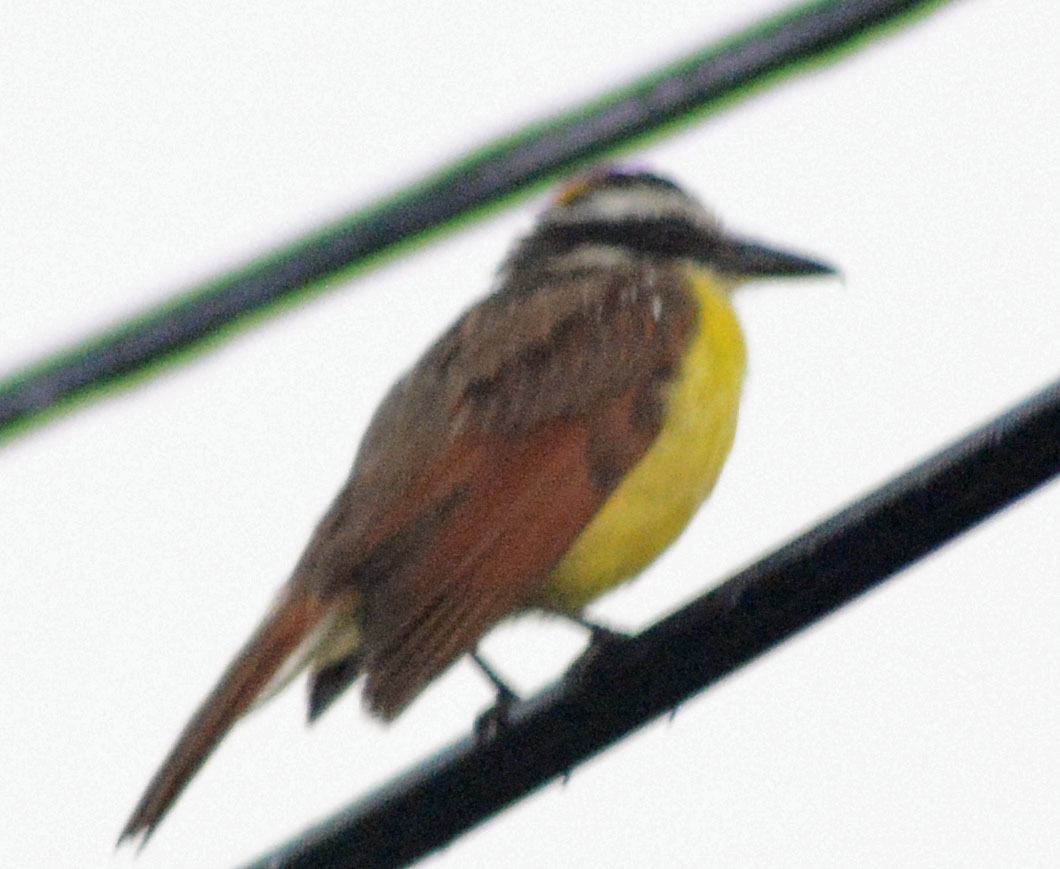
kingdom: Animalia
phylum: Chordata
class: Aves
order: Passeriformes
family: Tyrannidae
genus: Pitangus
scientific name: Pitangus sulphuratus
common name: Great kiskadee
